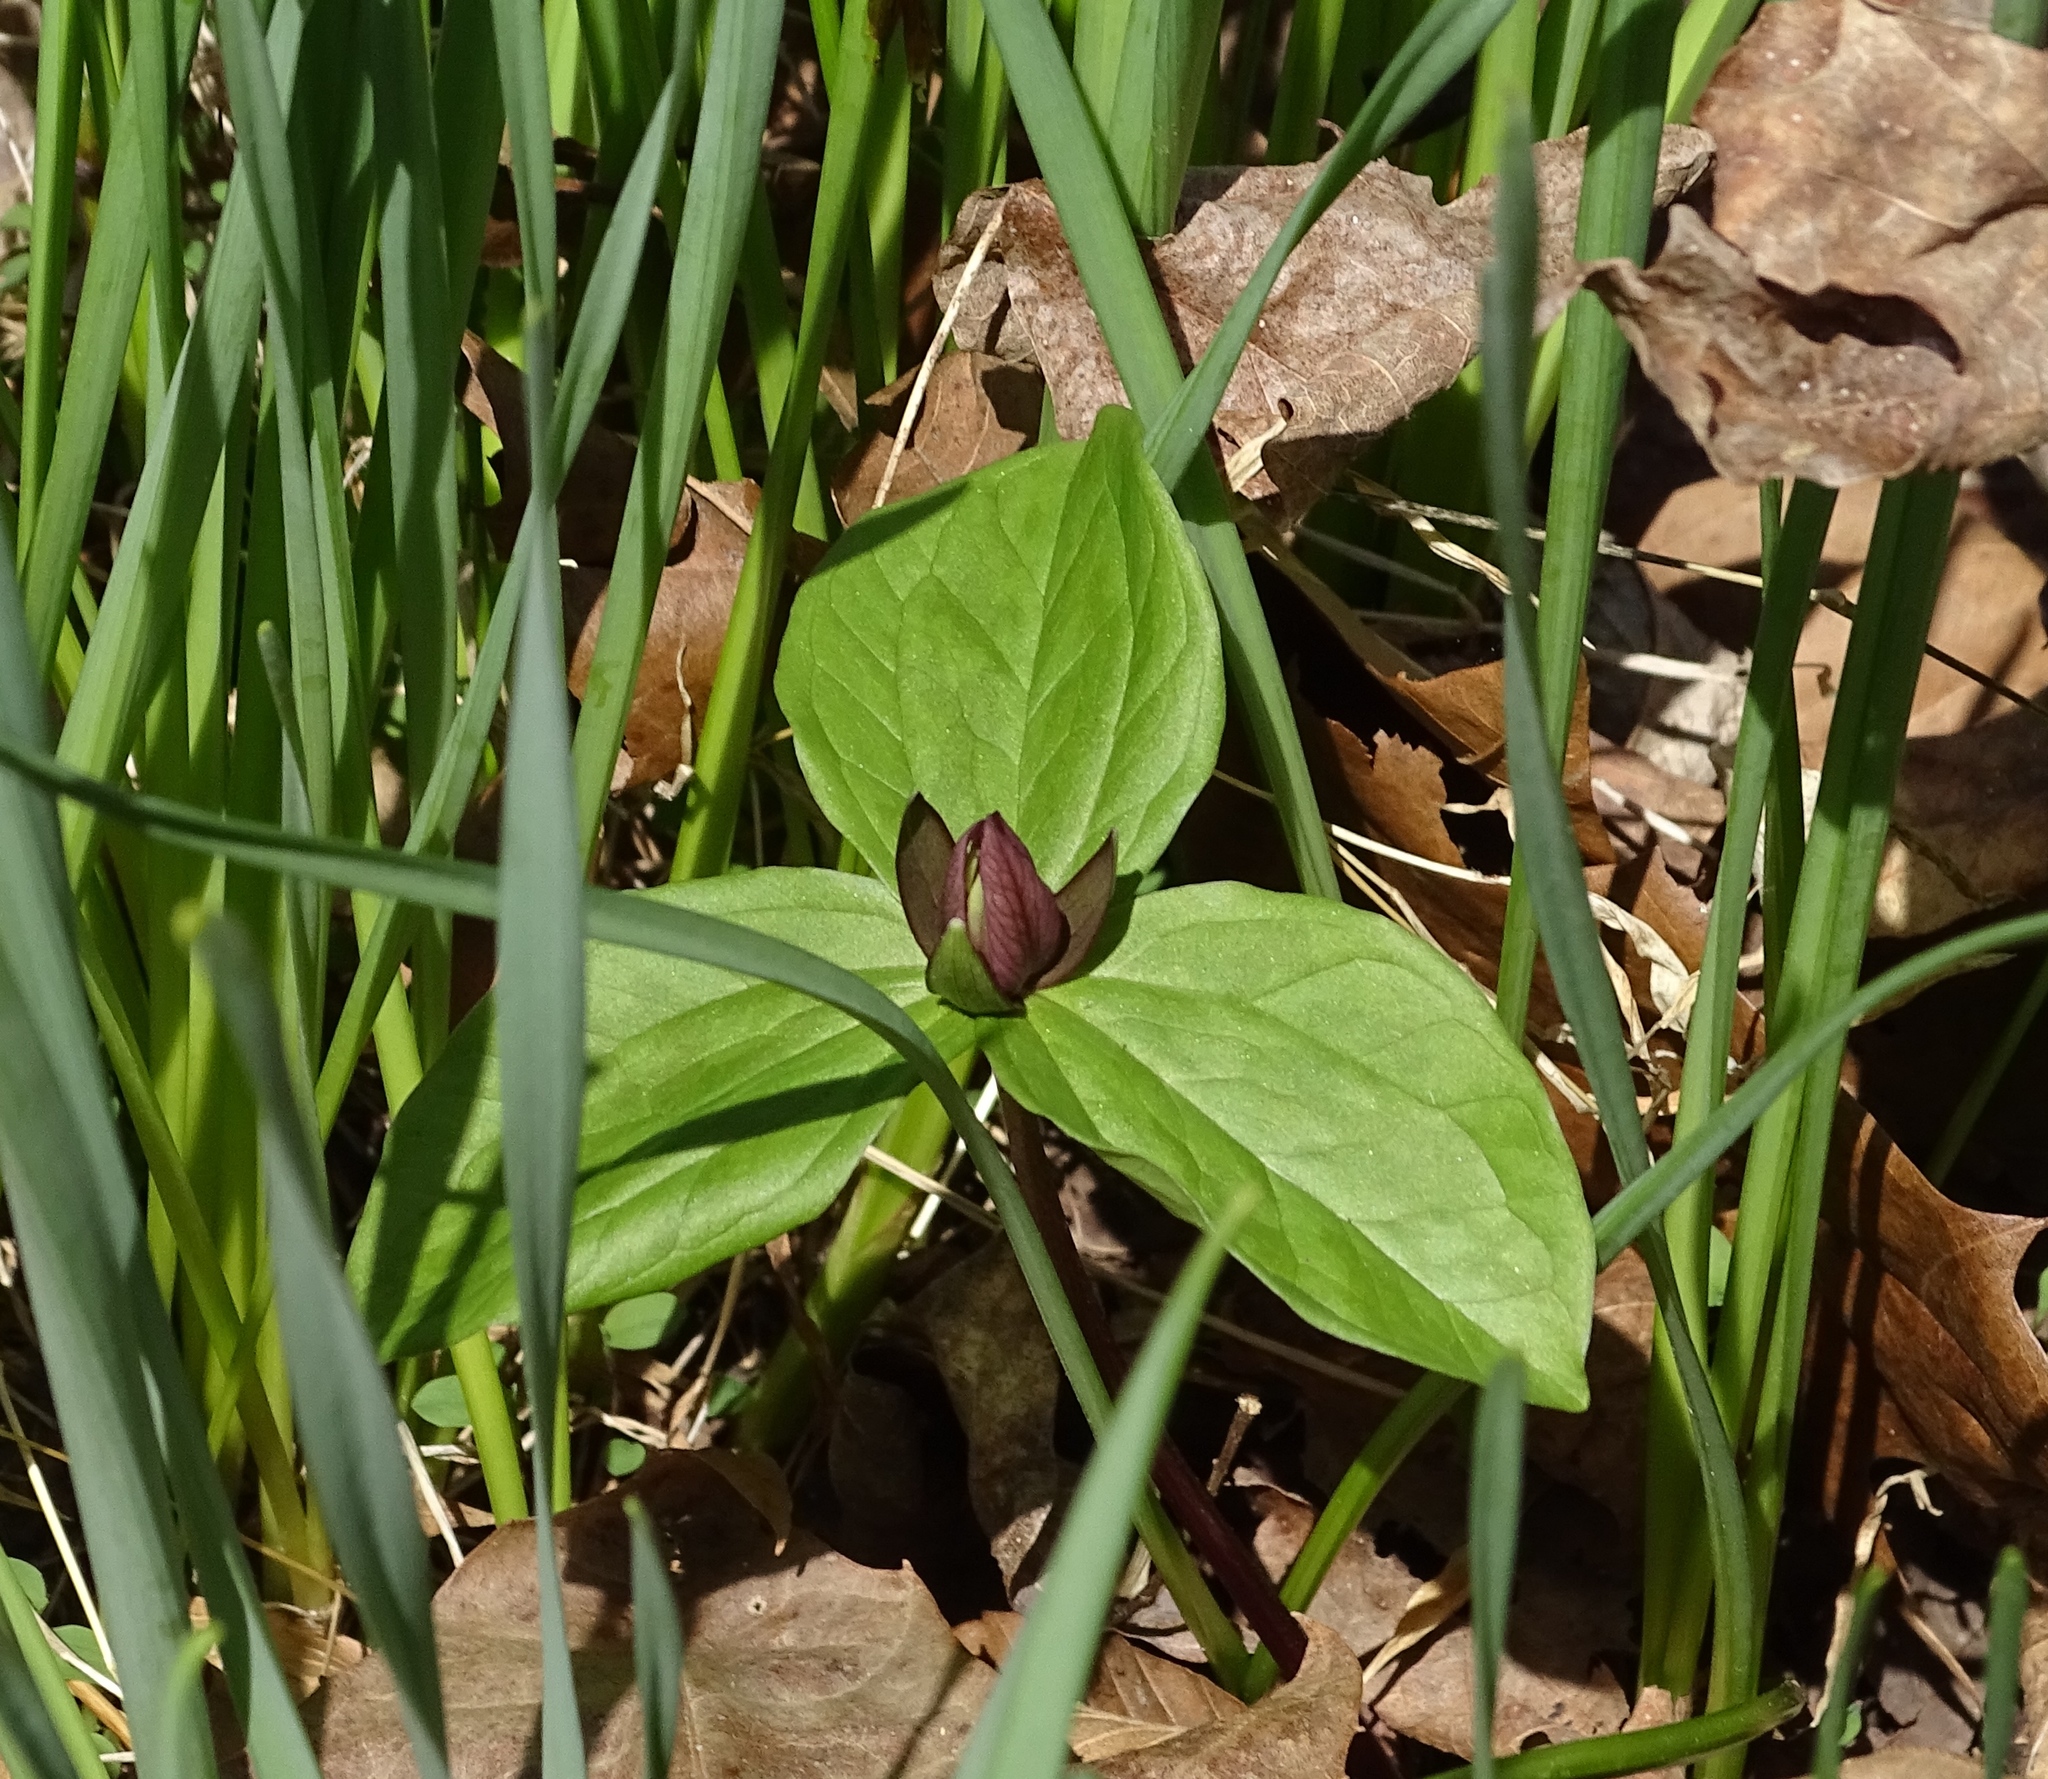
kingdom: Plantae
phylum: Tracheophyta
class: Liliopsida
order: Liliales
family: Melanthiaceae
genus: Trillium
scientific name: Trillium sessile
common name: Sessile trillium
